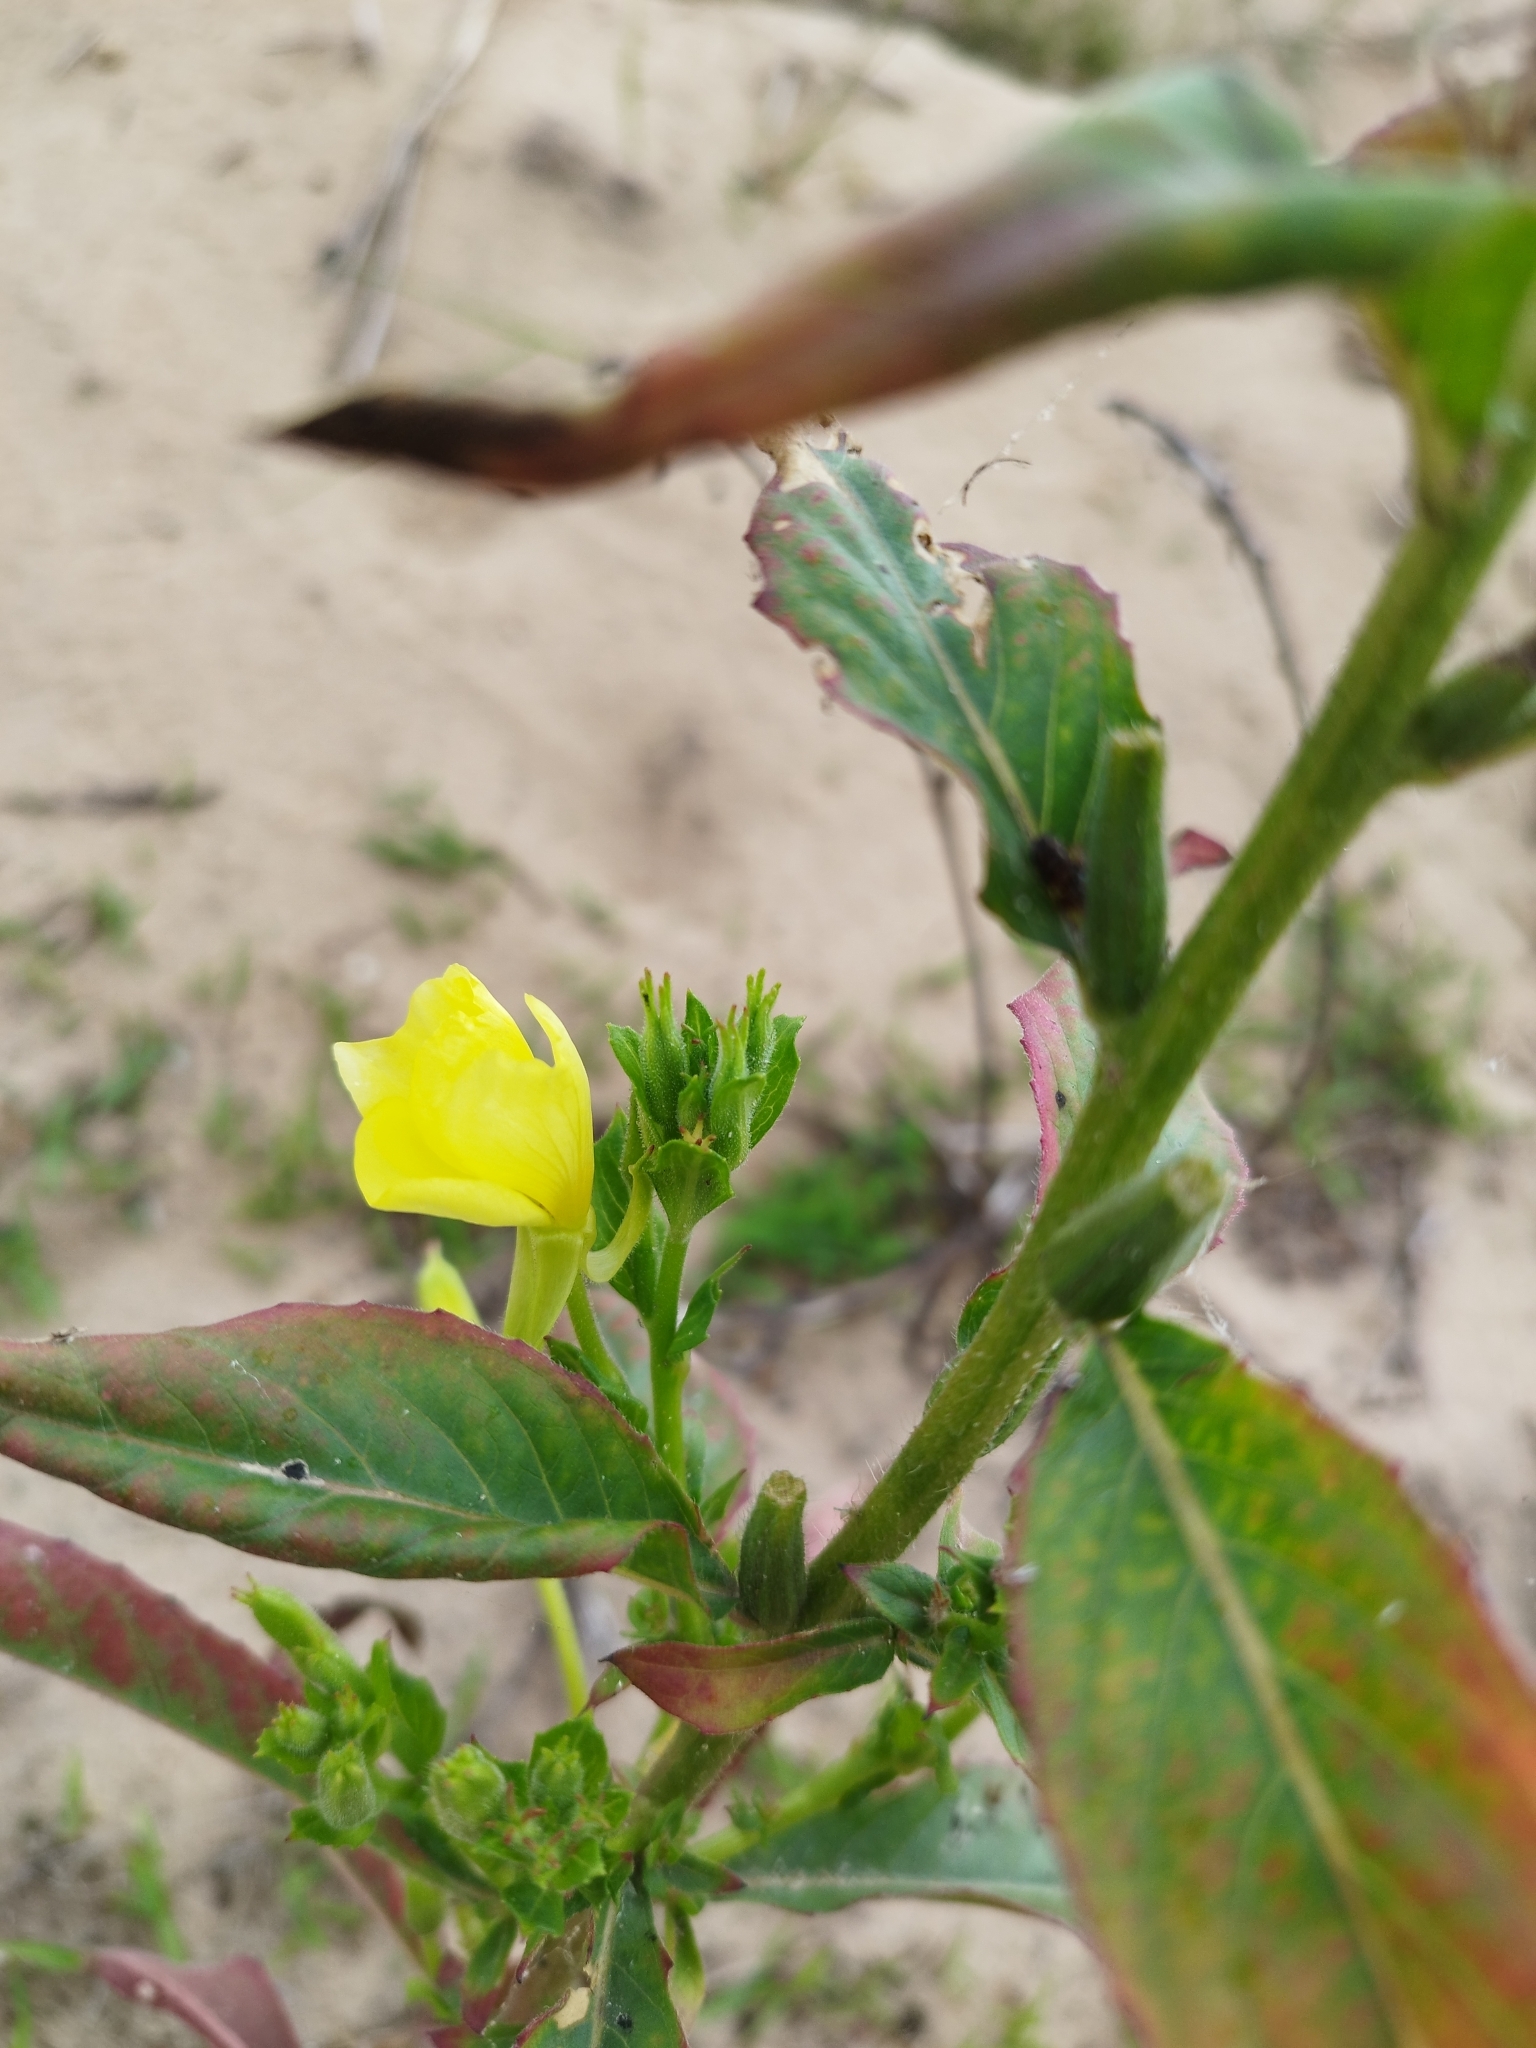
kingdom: Plantae
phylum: Tracheophyta
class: Magnoliopsida
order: Myrtales
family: Onagraceae
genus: Oenothera
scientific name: Oenothera biennis
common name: Common evening-primrose
